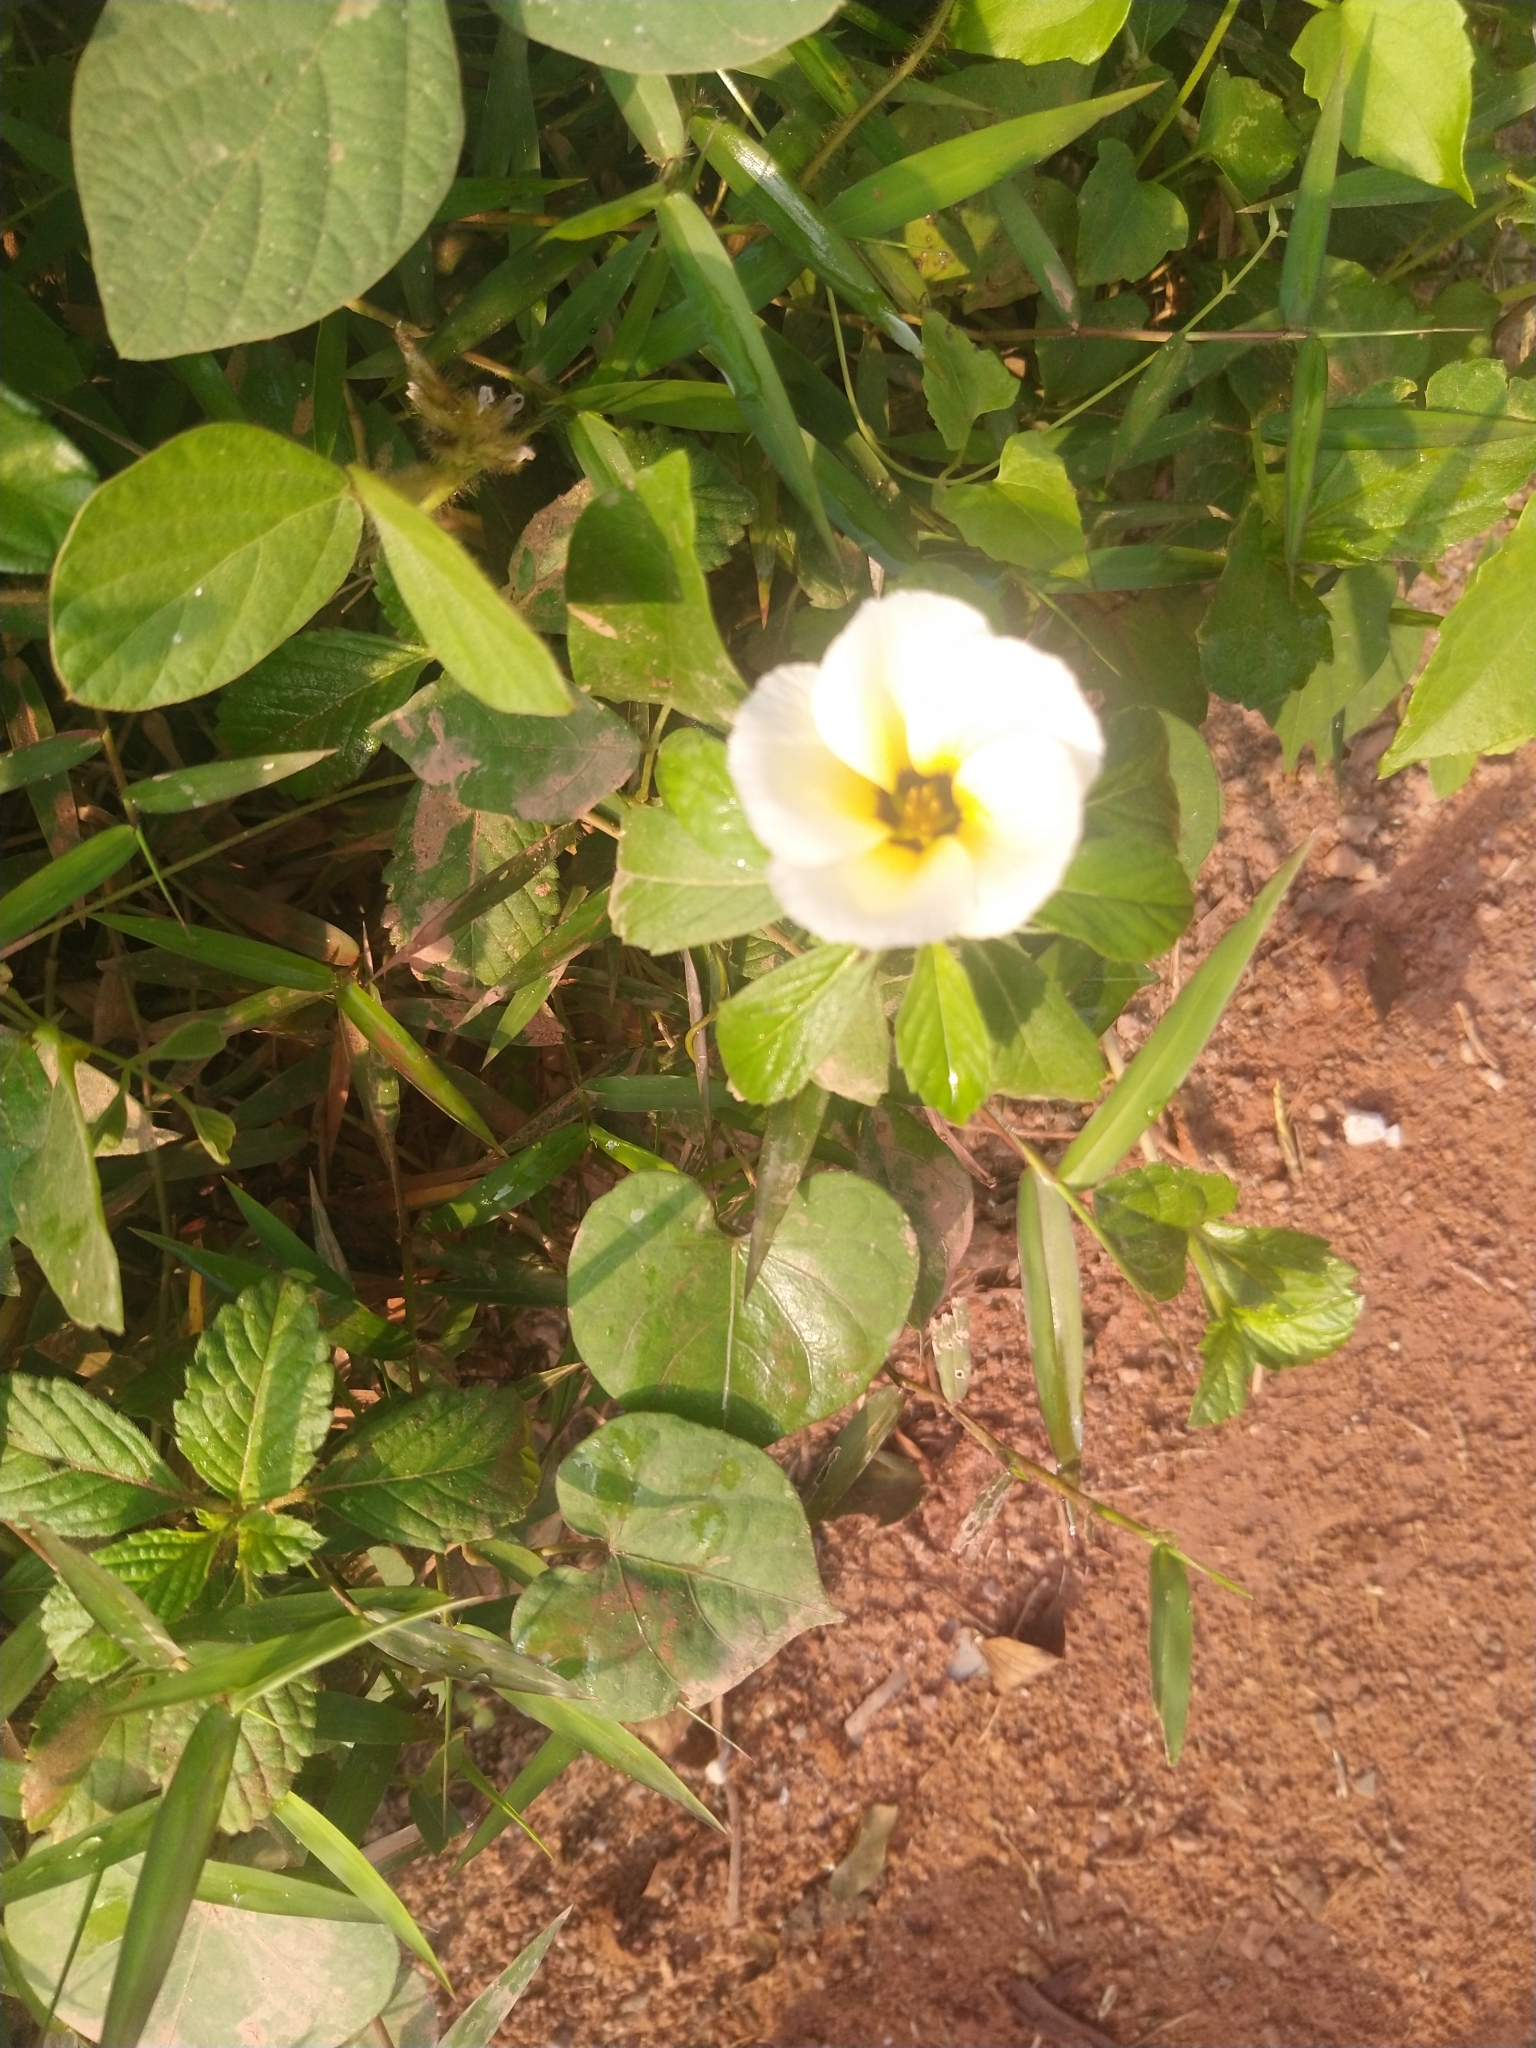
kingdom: Plantae
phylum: Tracheophyta
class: Magnoliopsida
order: Malpighiales
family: Turneraceae
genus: Turnera
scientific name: Turnera subulata
